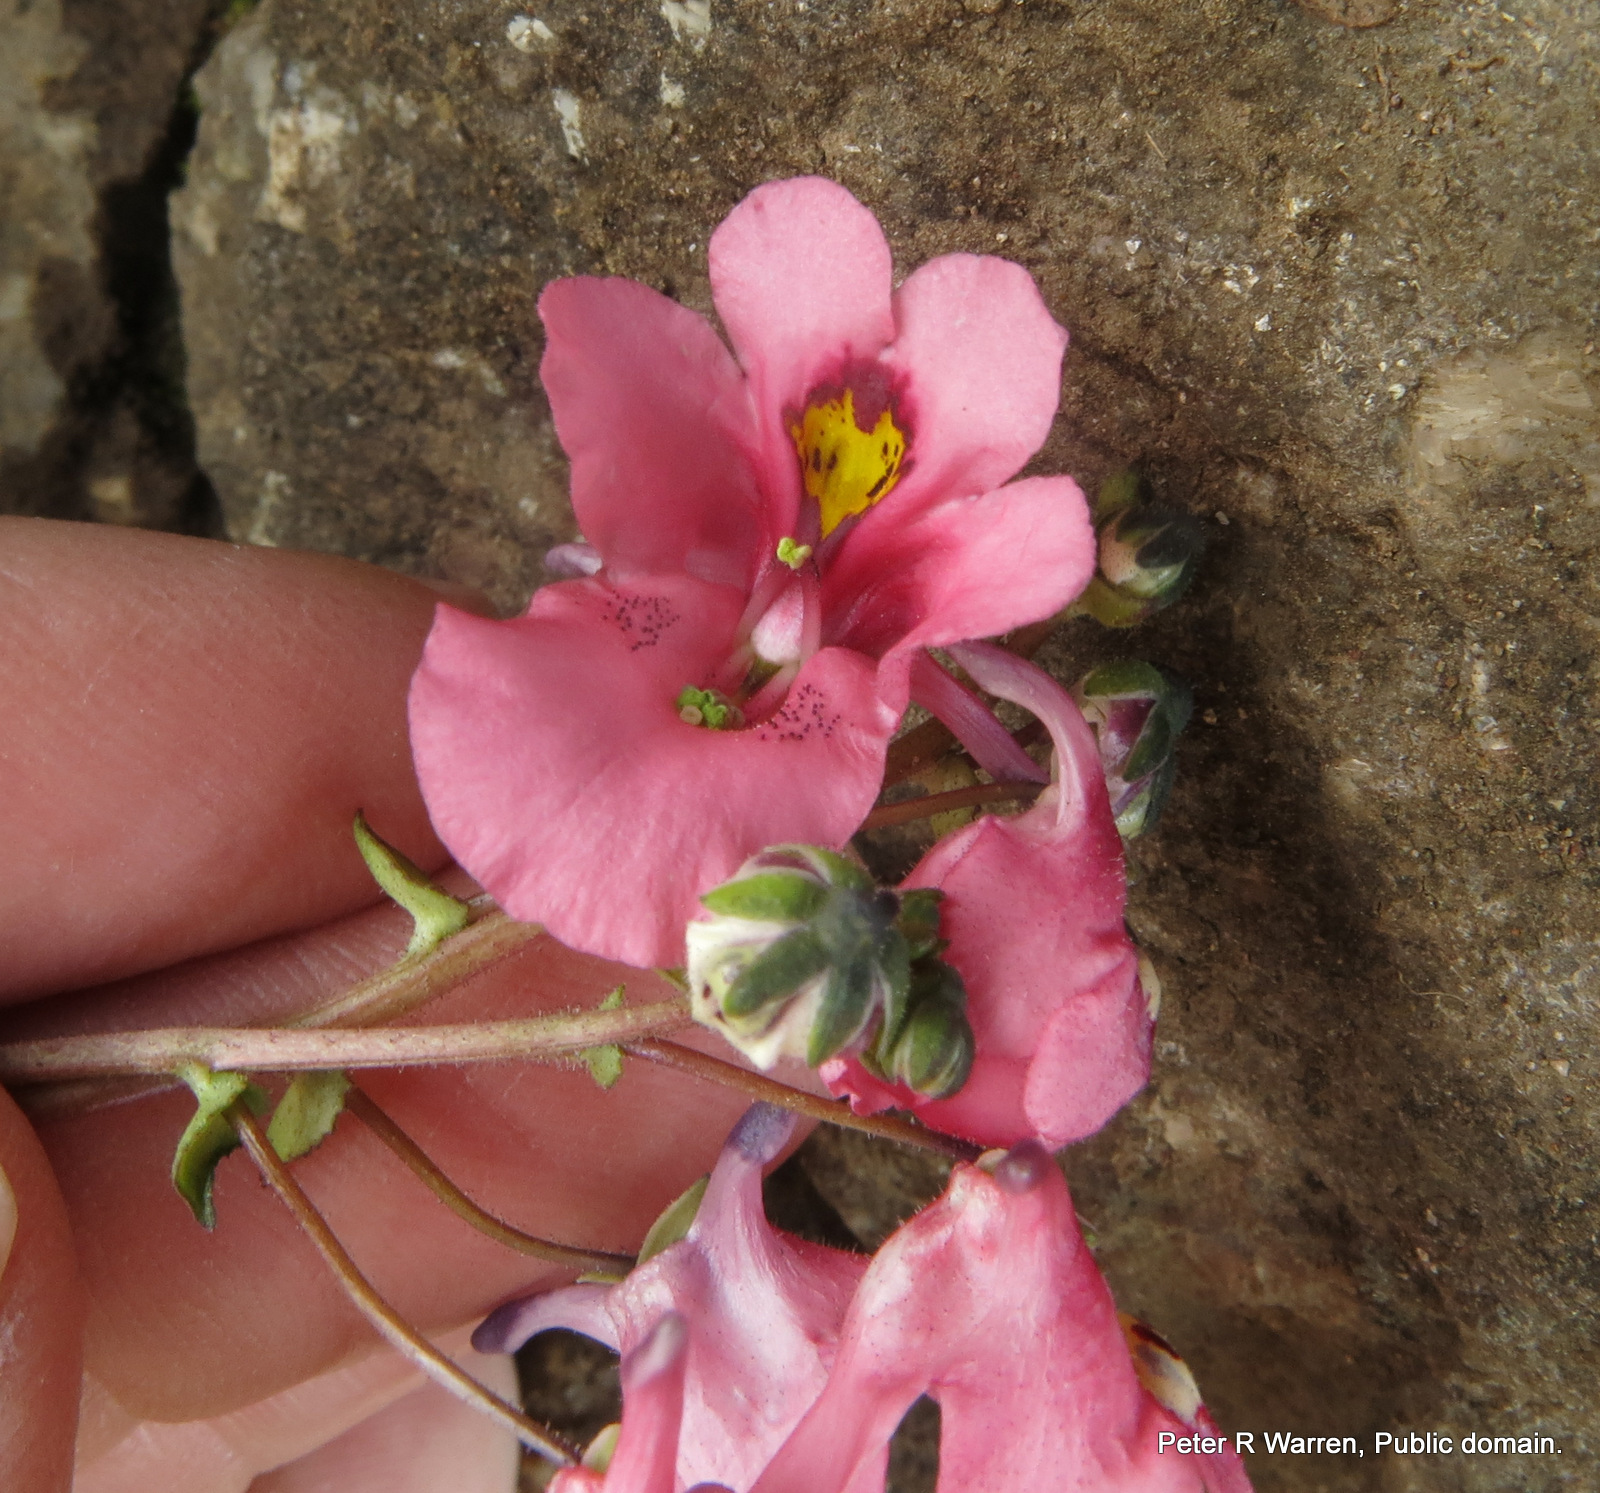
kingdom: Plantae
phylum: Tracheophyta
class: Magnoliopsida
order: Lamiales
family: Scrophulariaceae
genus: Diascia
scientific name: Diascia anastrepta
